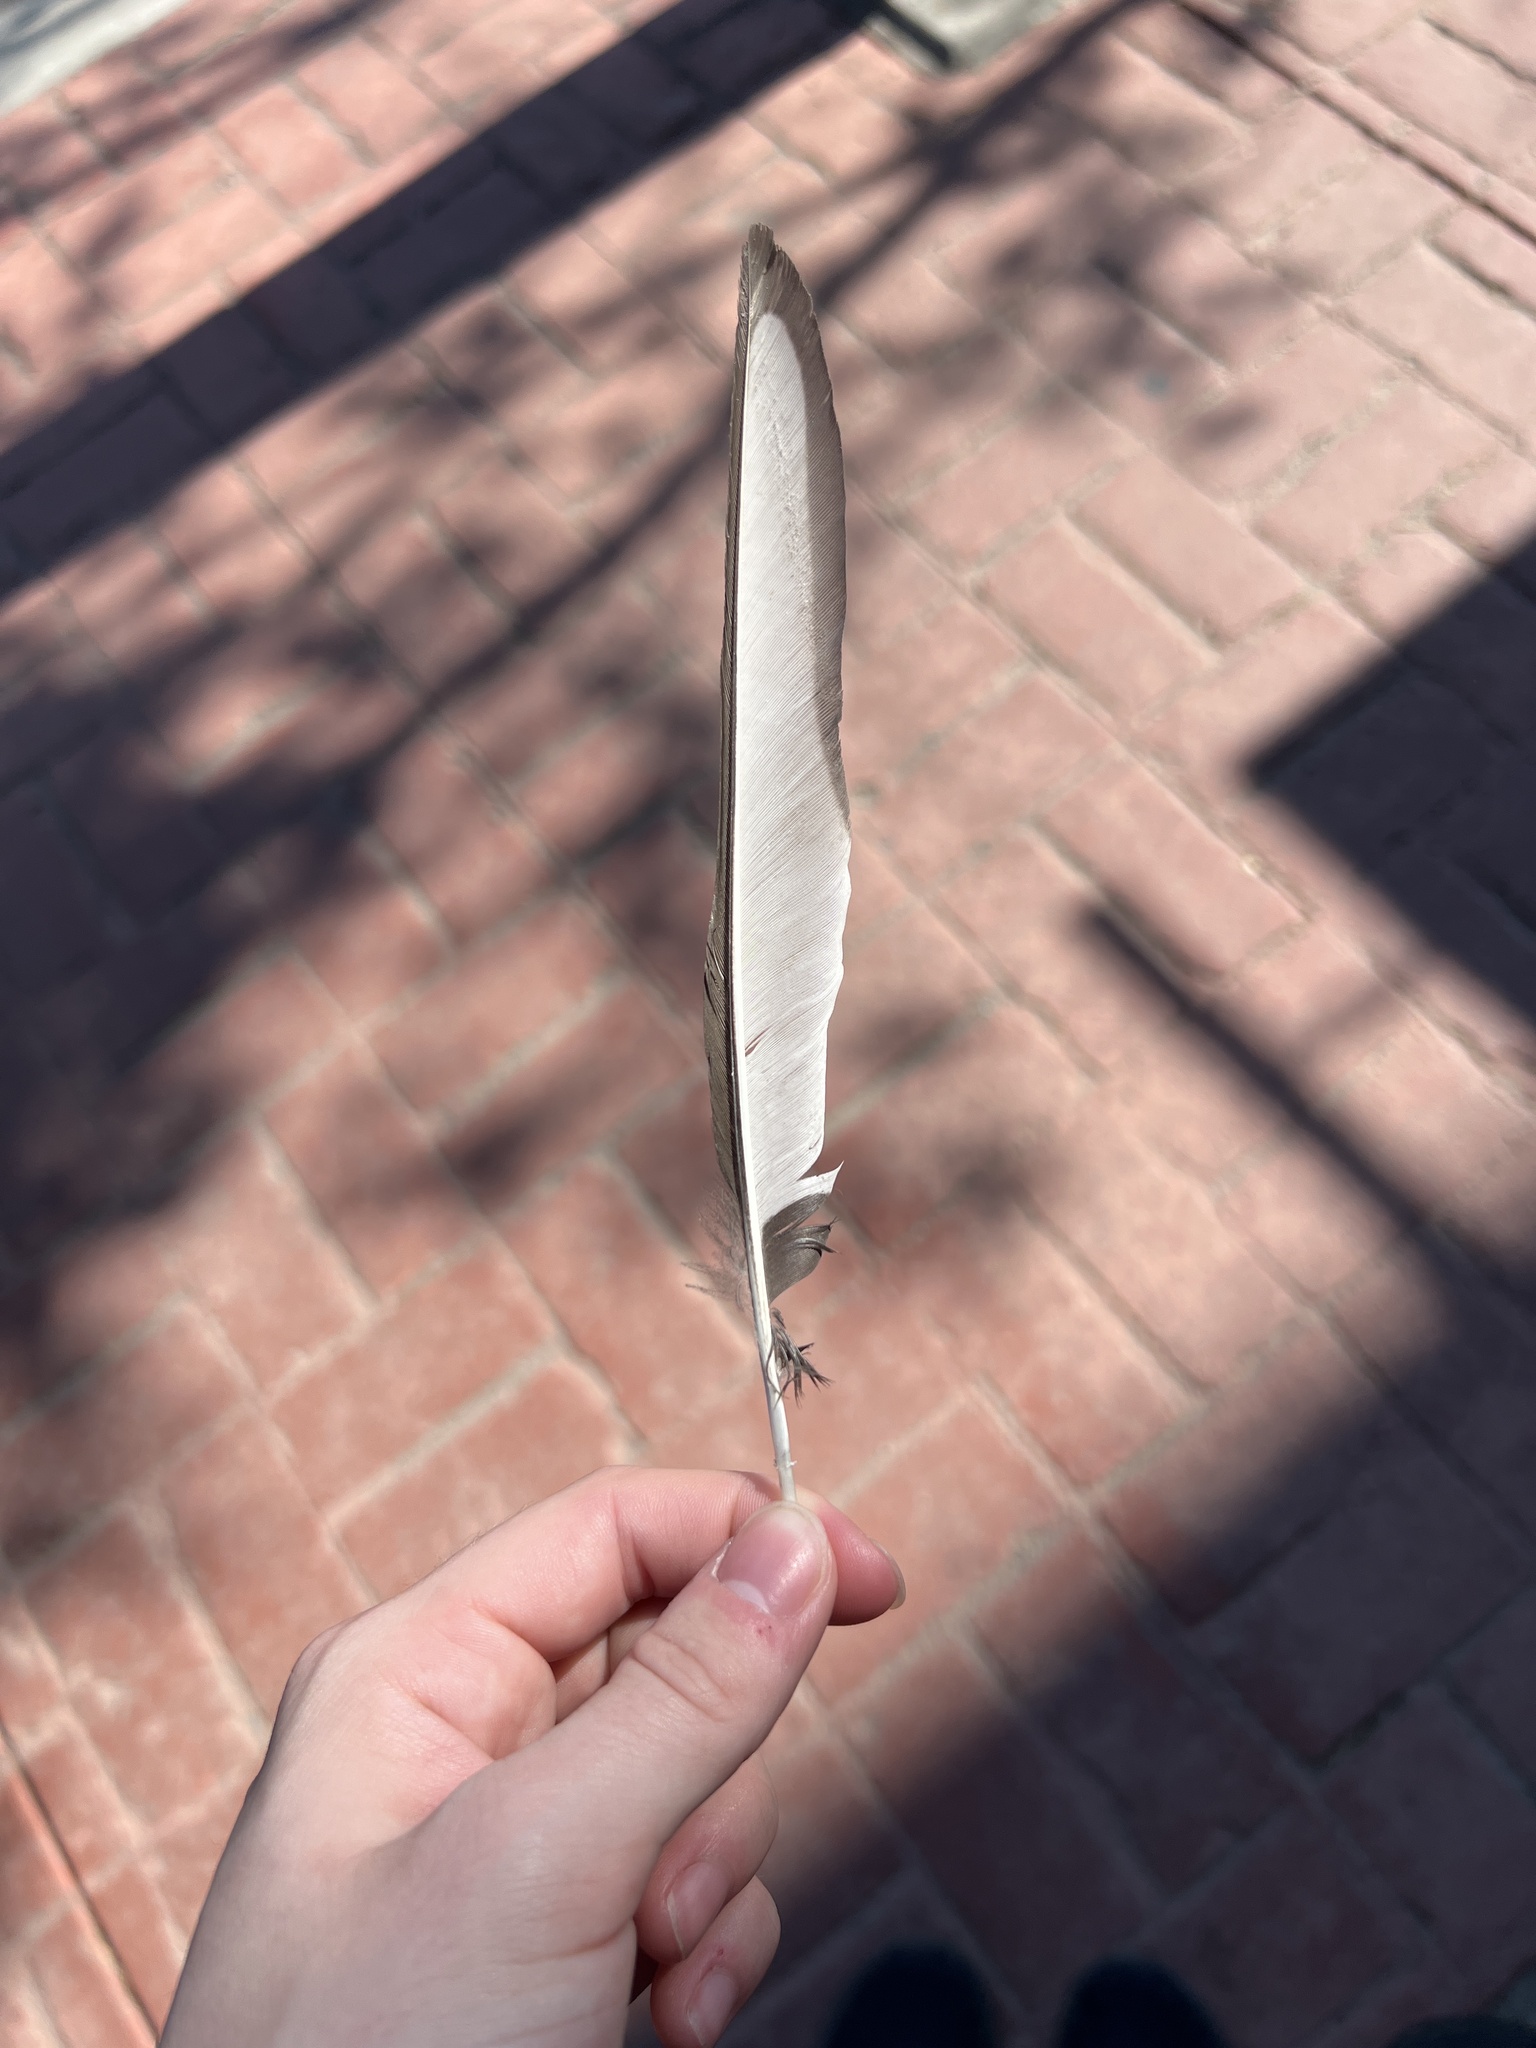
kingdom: Animalia
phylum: Chordata
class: Aves
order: Passeriformes
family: Corvidae
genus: Pica
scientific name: Pica hudsonia
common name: Black-billed magpie
